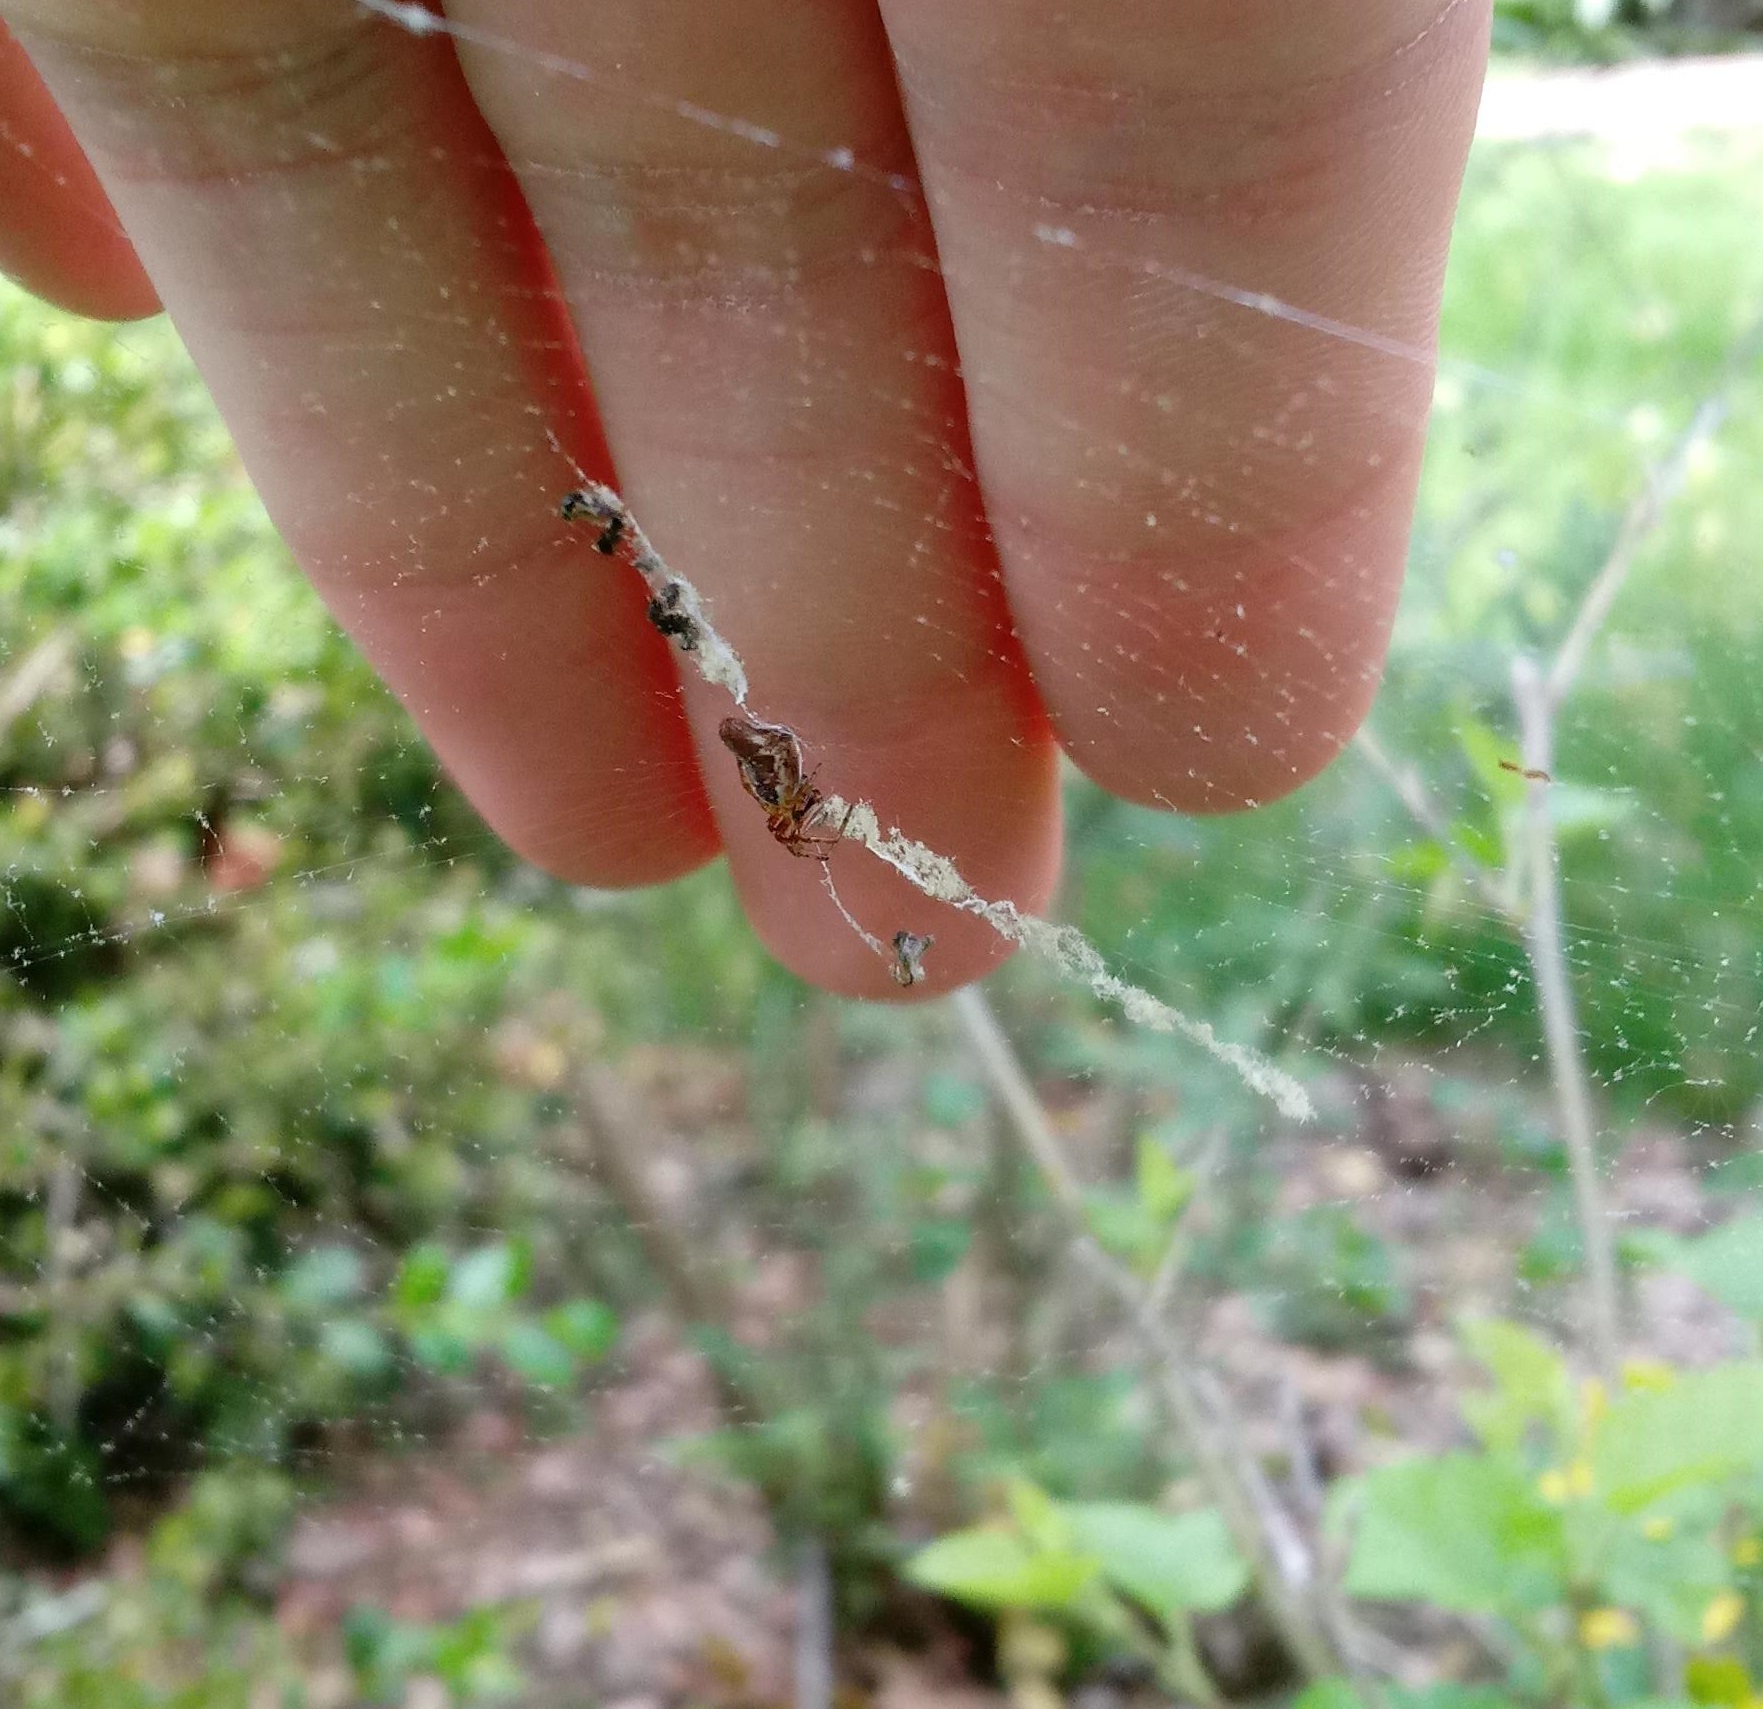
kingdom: Animalia
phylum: Arthropoda
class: Arachnida
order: Araneae
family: Araneidae
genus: Cyclosa
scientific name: Cyclosa conica
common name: Conical trashline orbweaver
